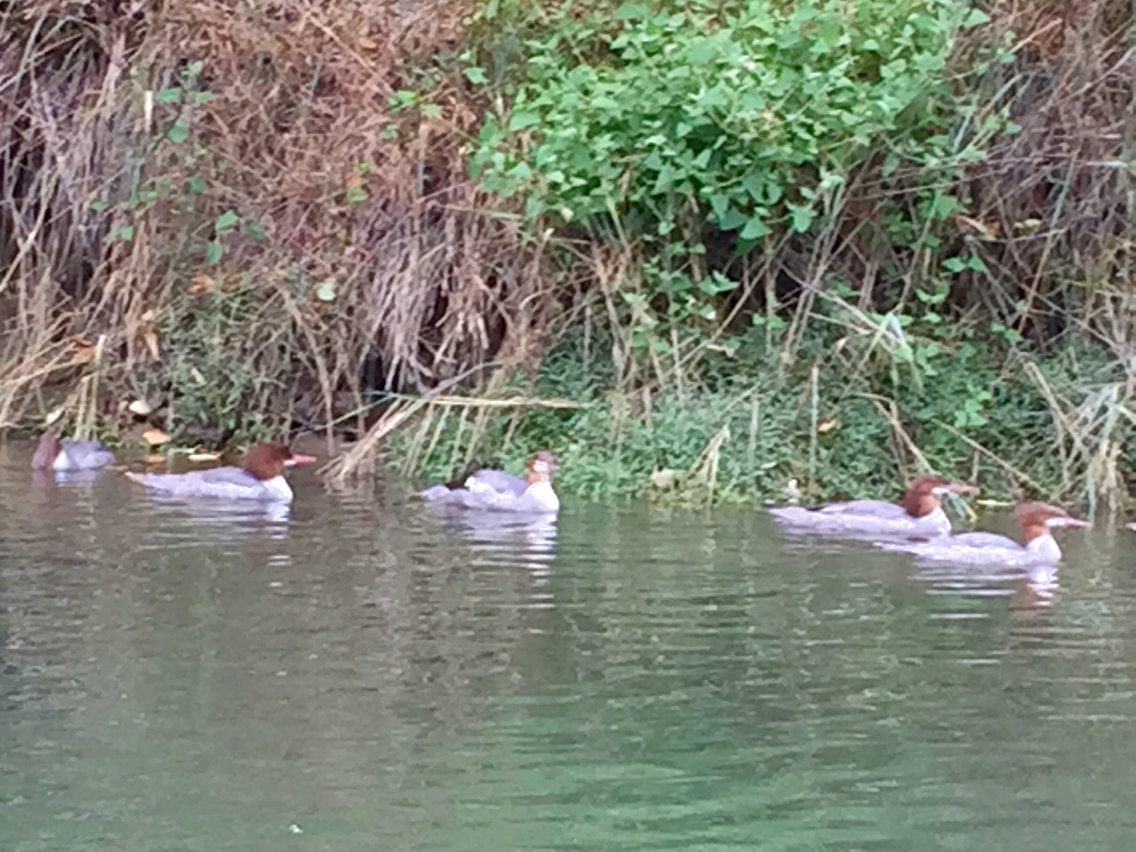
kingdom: Animalia
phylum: Chordata
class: Aves
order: Anseriformes
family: Anatidae
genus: Mergus
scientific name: Mergus merganser
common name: Common merganser
